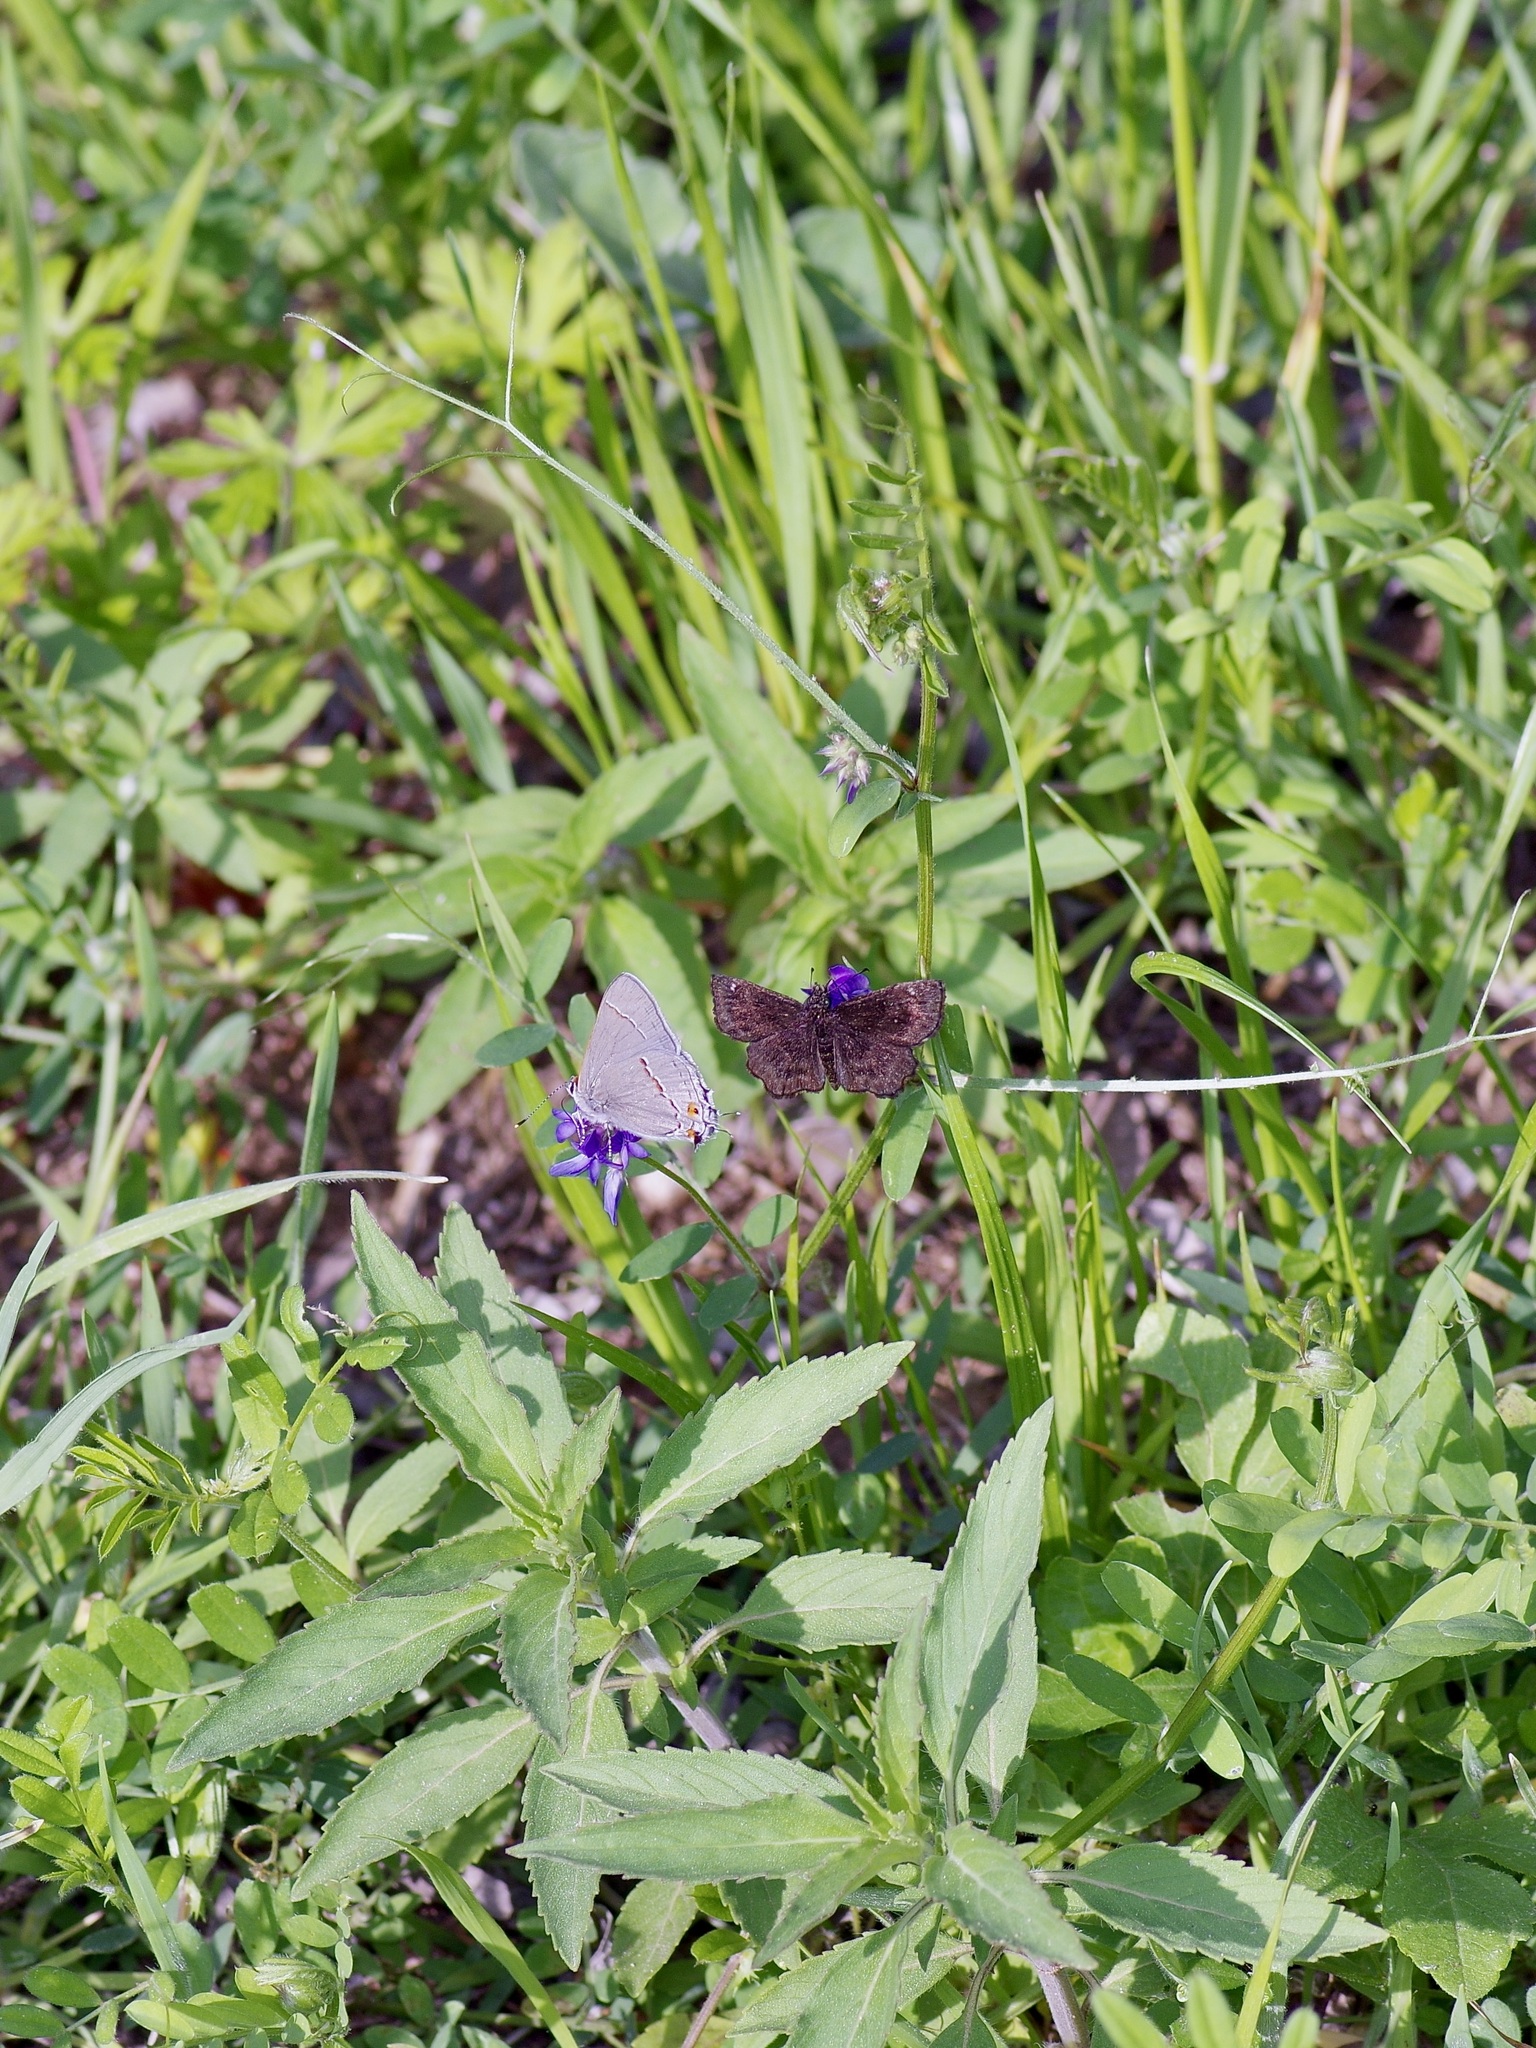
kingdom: Animalia
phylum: Arthropoda
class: Insecta
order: Lepidoptera
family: Hesperiidae
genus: Staphylus
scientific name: Staphylus mazans
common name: Mazans scallopwing
